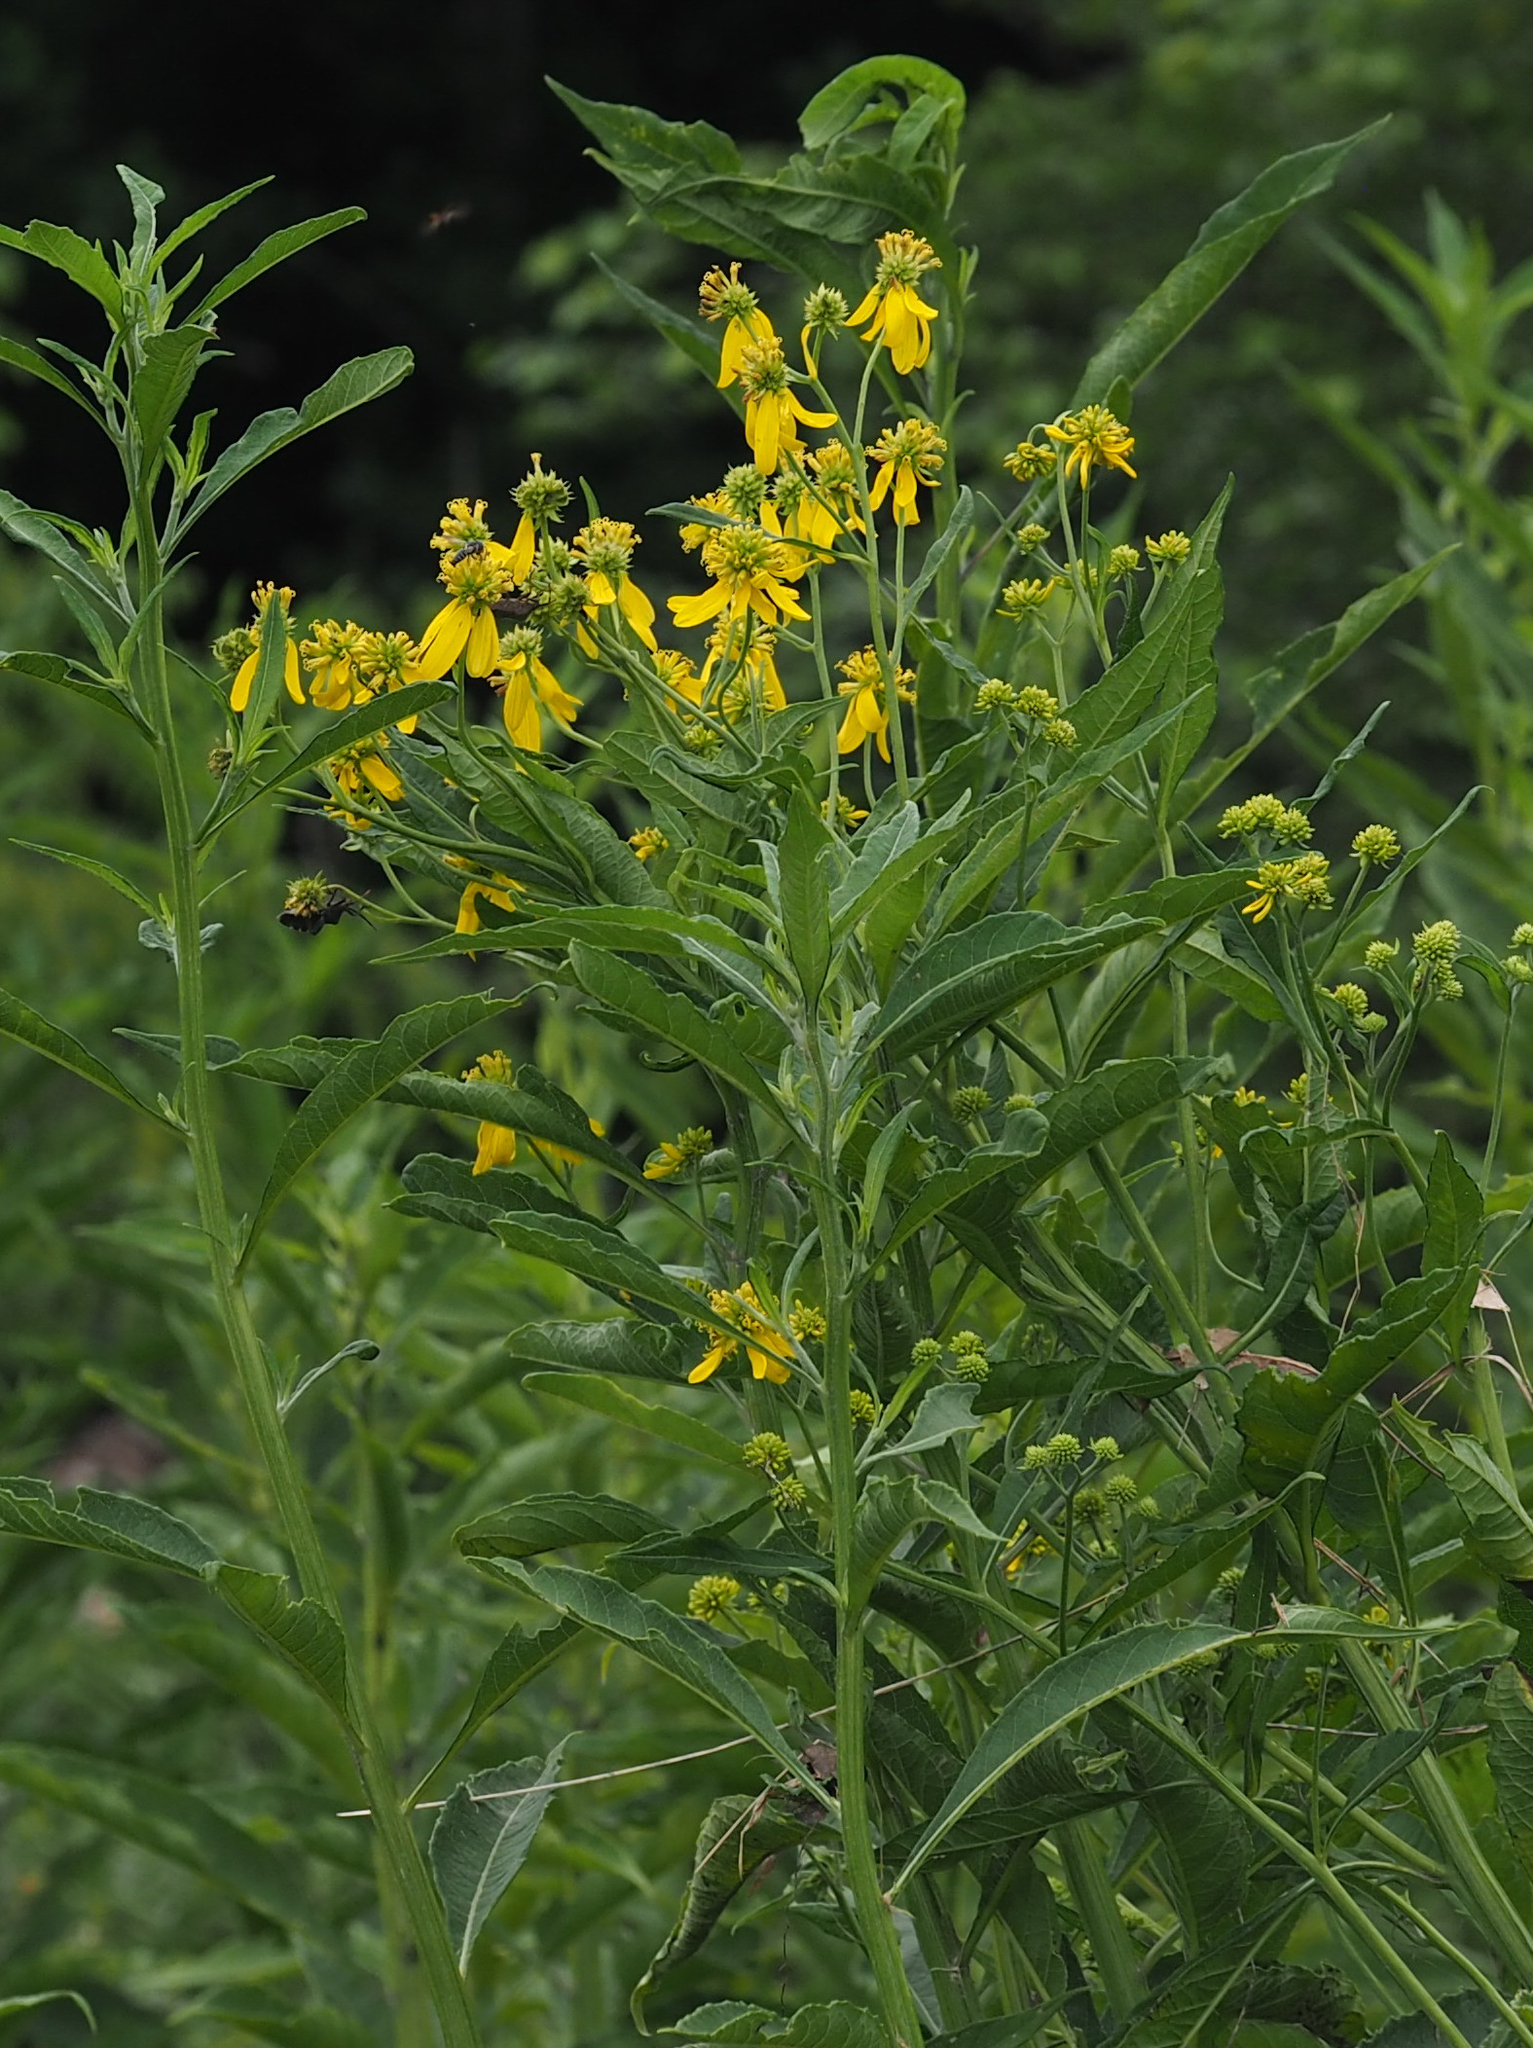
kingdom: Plantae
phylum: Tracheophyta
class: Magnoliopsida
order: Asterales
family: Asteraceae
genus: Verbesina
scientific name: Verbesina alternifolia
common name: Wingstem
